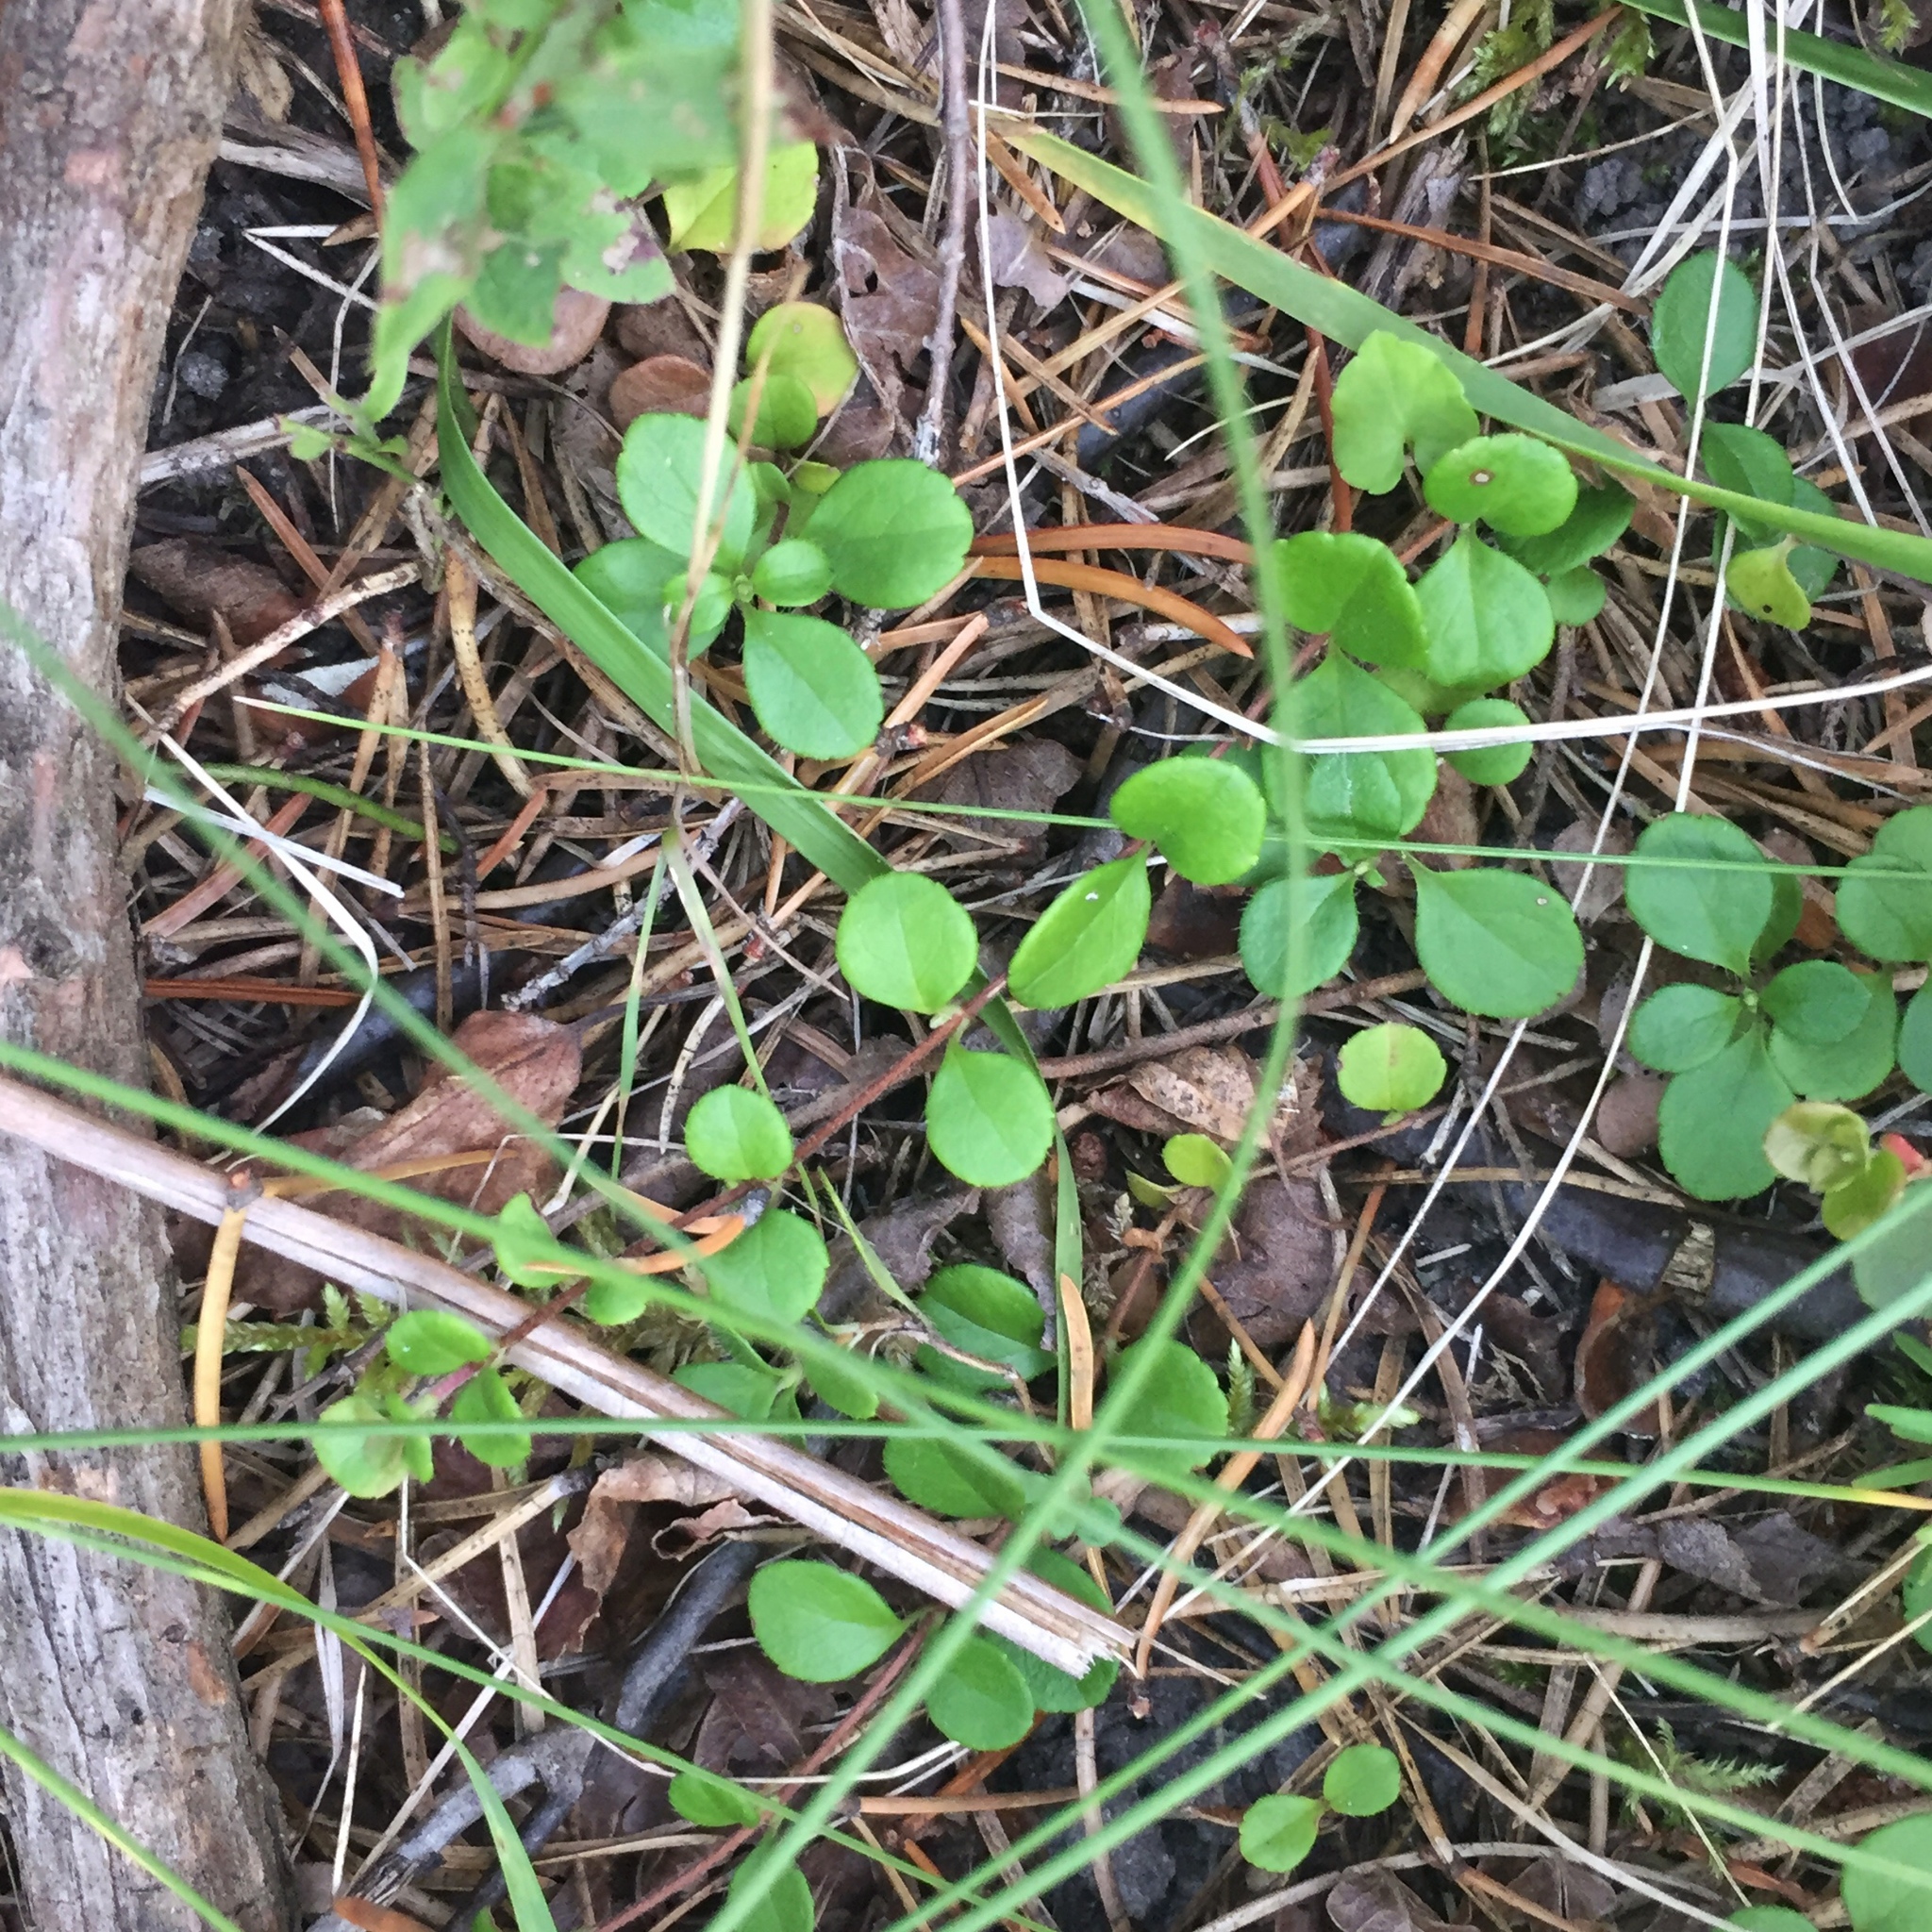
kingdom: Plantae
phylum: Tracheophyta
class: Magnoliopsida
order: Dipsacales
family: Caprifoliaceae
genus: Linnaea
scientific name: Linnaea borealis
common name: Twinflower
